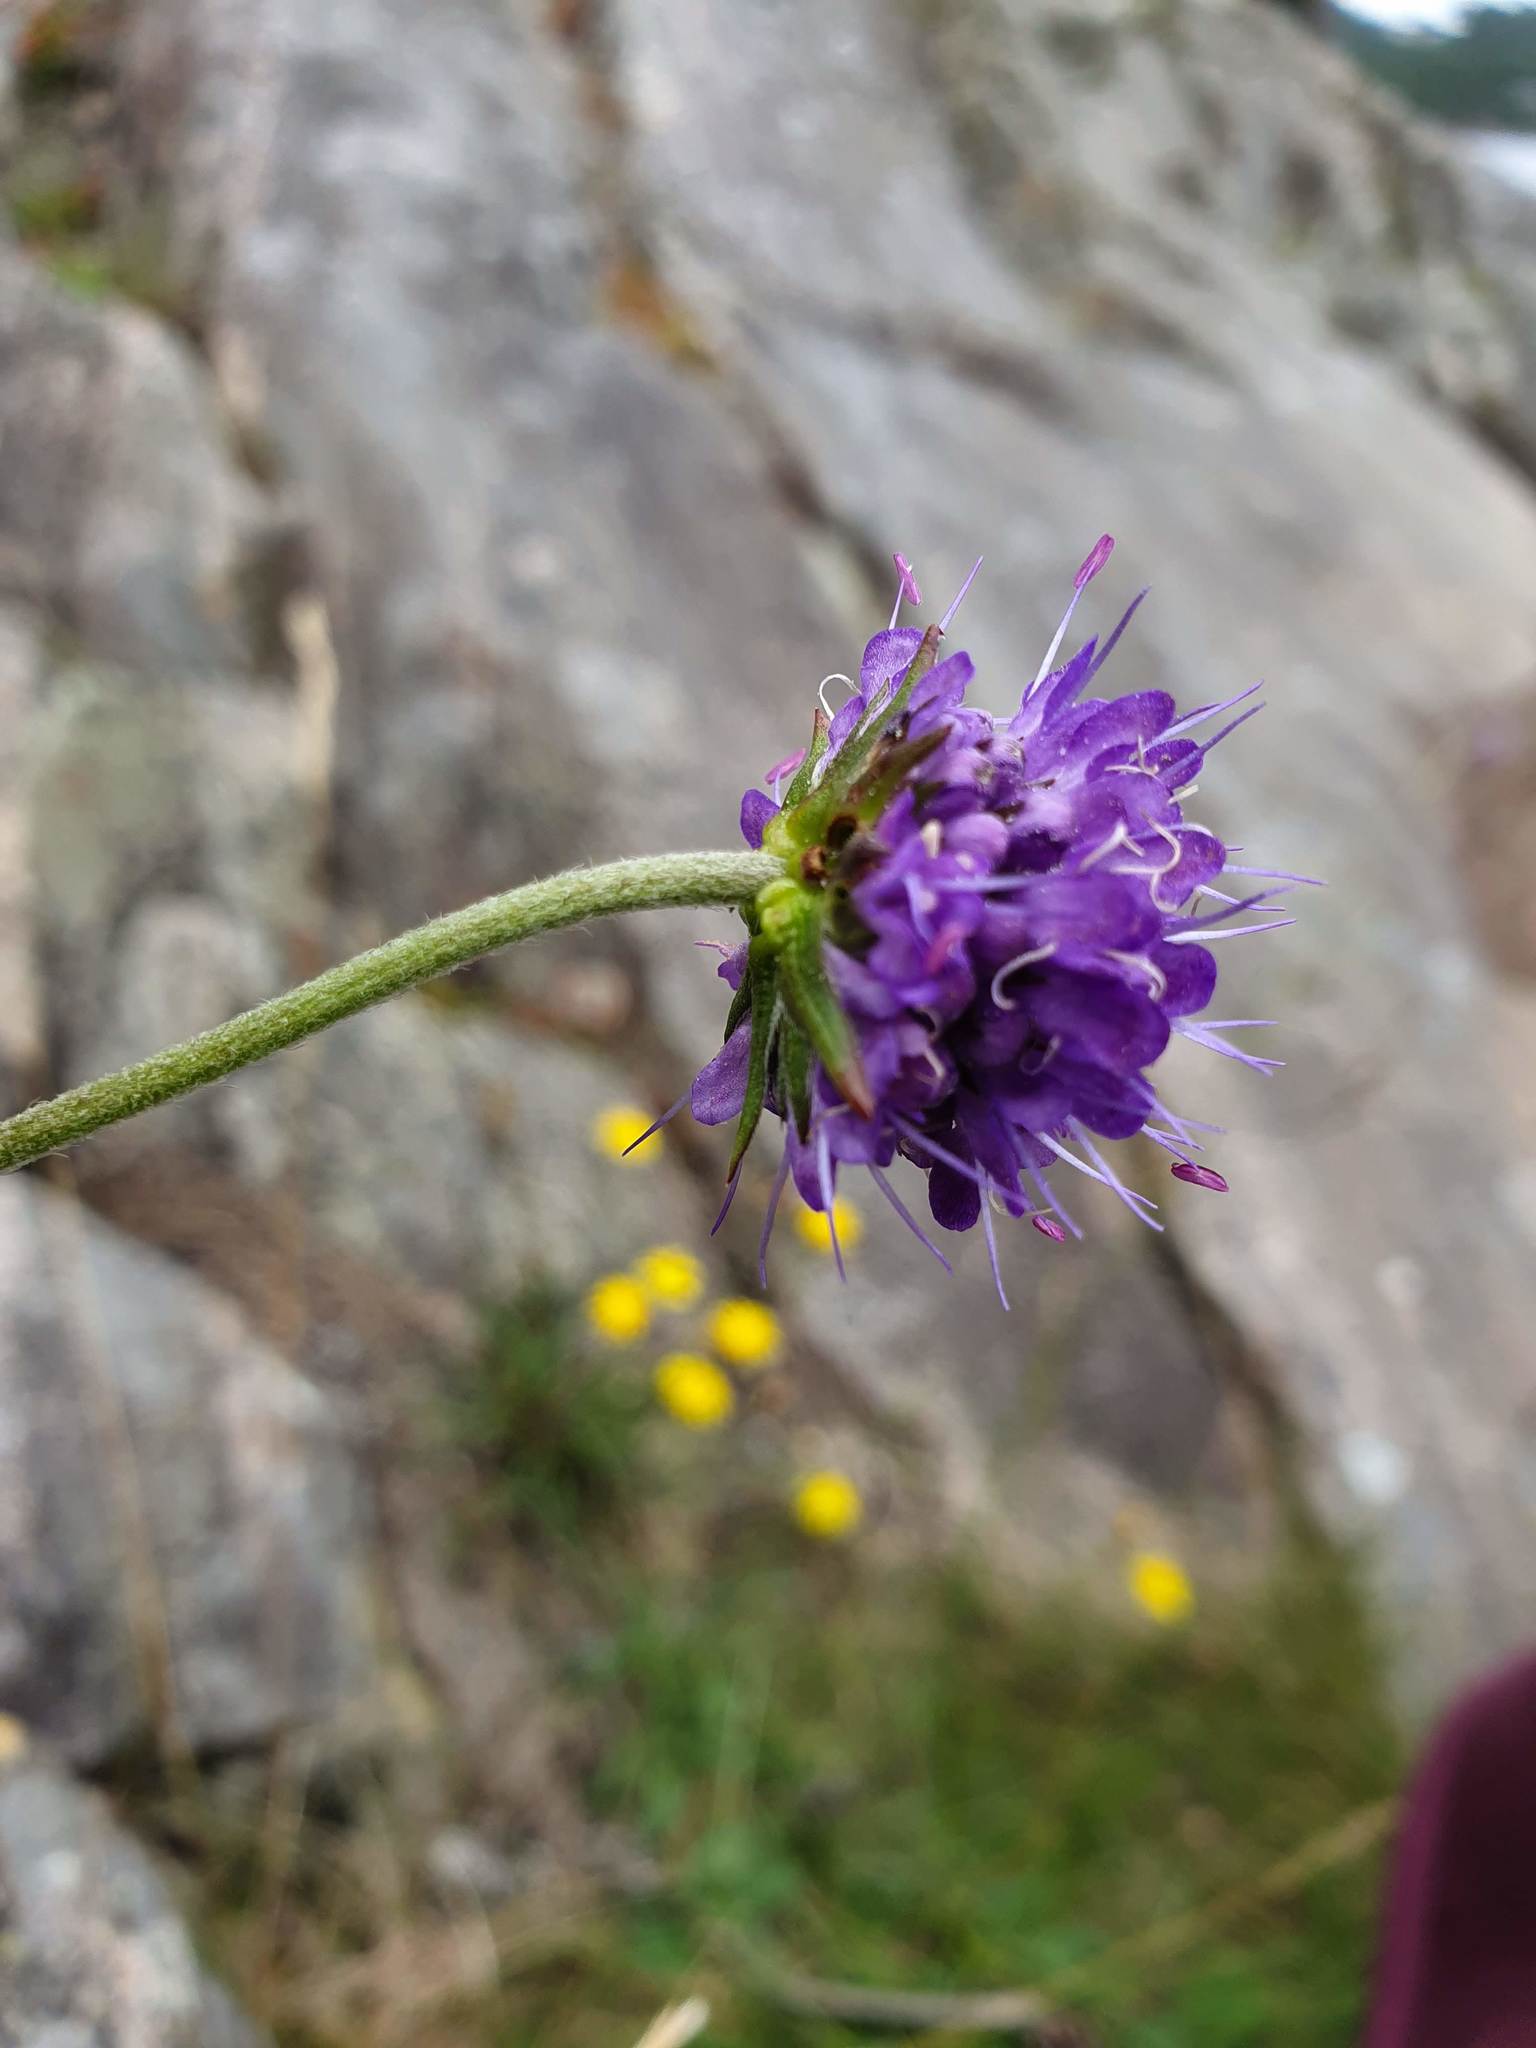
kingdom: Plantae
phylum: Tracheophyta
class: Magnoliopsida
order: Dipsacales
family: Caprifoliaceae
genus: Succisa
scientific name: Succisa pratensis
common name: Devil's-bit
